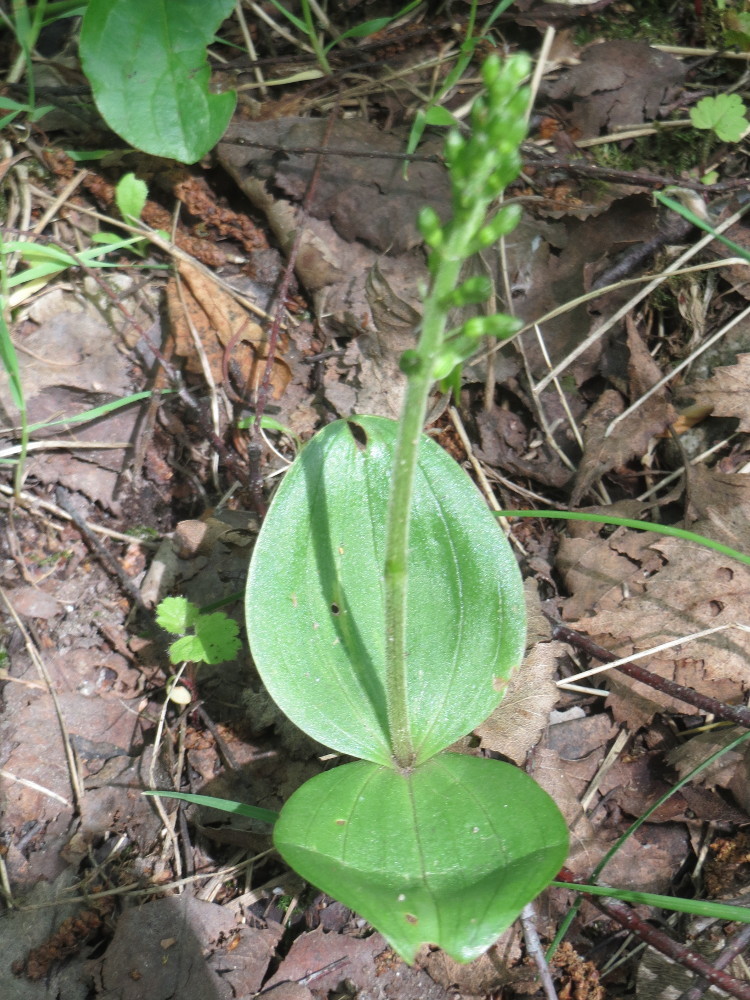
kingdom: Plantae
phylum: Tracheophyta
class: Liliopsida
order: Asparagales
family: Orchidaceae
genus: Neottia
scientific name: Neottia ovata
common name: Common twayblade
